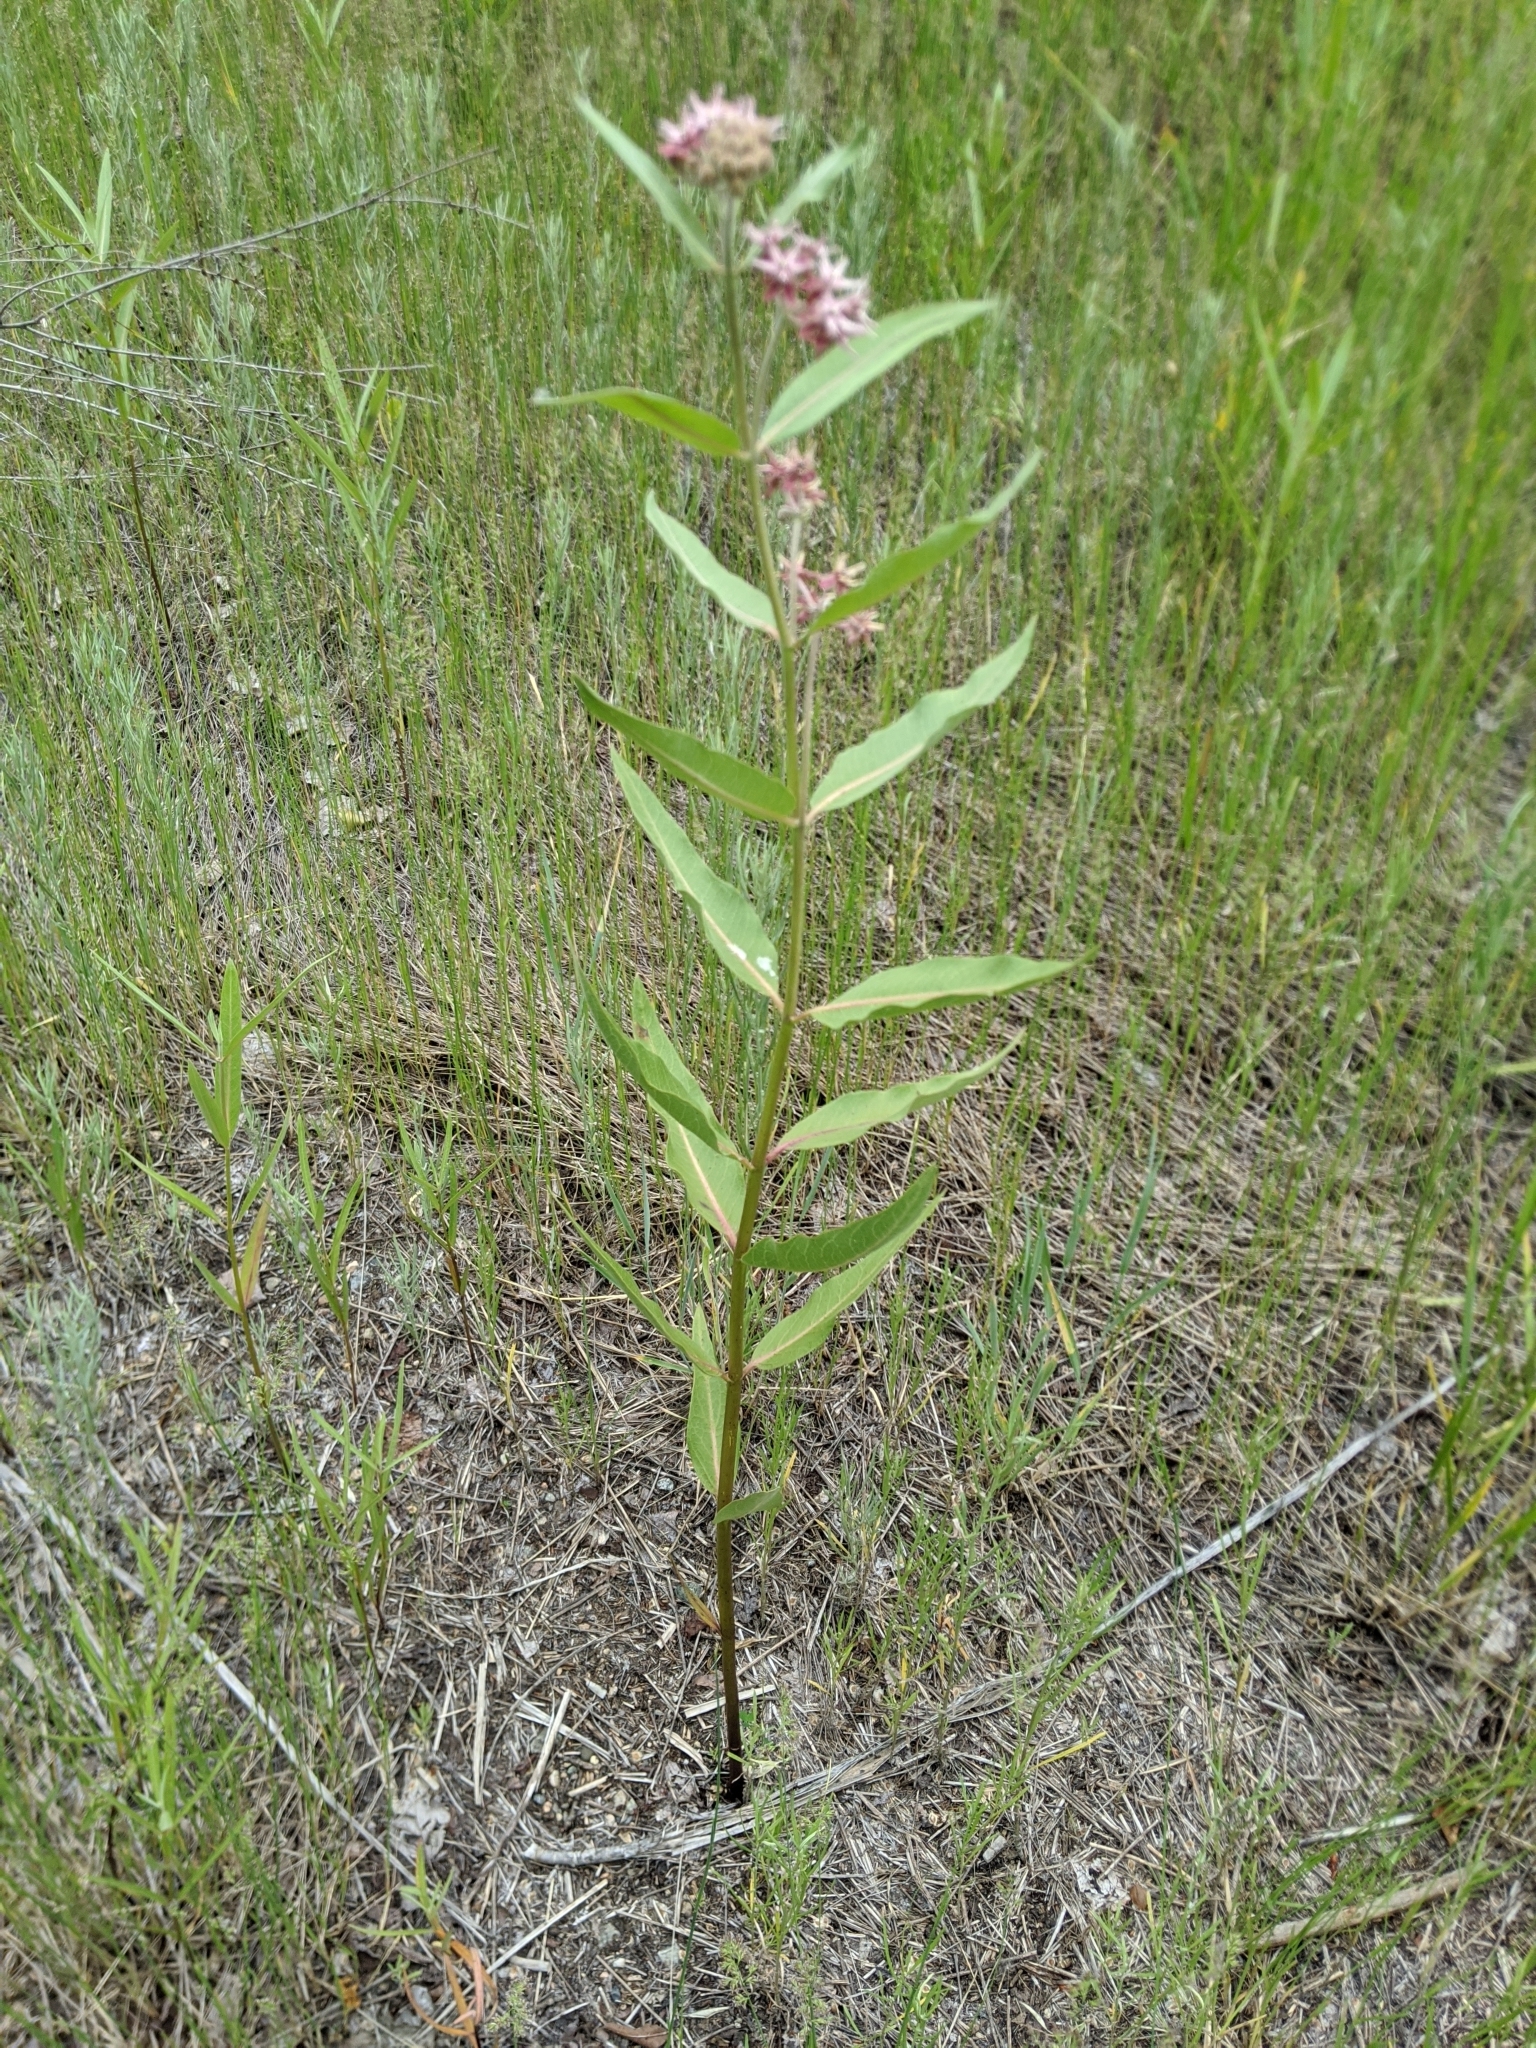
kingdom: Plantae
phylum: Tracheophyta
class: Magnoliopsida
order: Gentianales
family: Apocynaceae
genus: Asclepias
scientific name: Asclepias speciosa
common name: Showy milkweed
